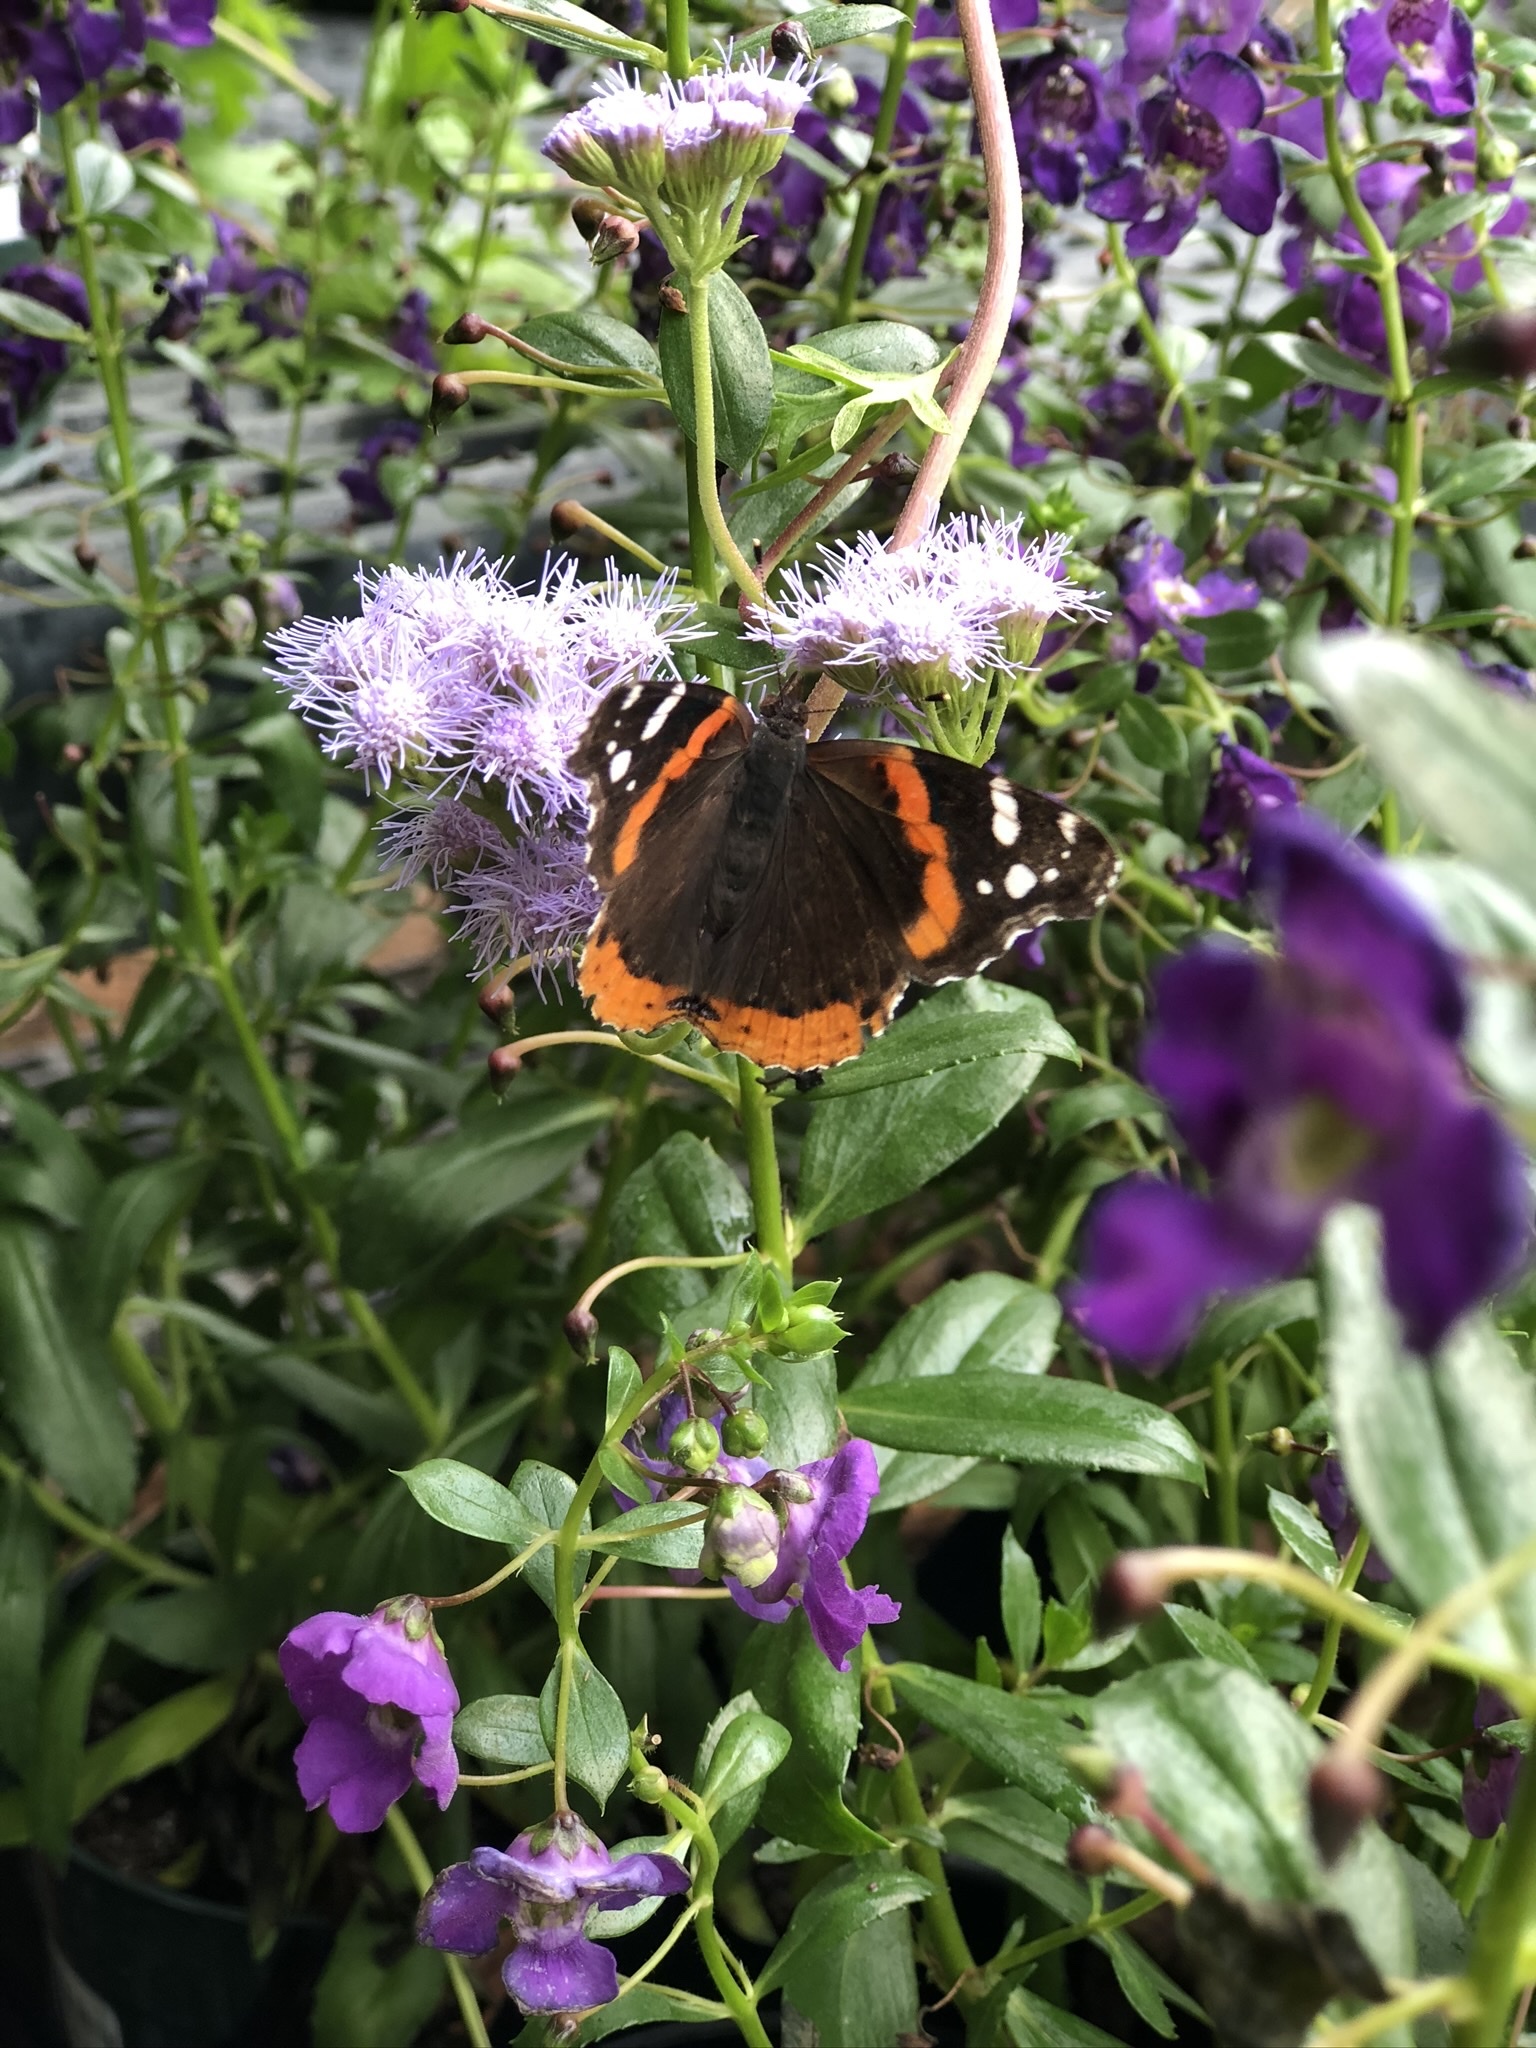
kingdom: Animalia
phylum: Arthropoda
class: Insecta
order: Lepidoptera
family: Nymphalidae
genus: Vanessa
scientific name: Vanessa atalanta
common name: Red admiral
